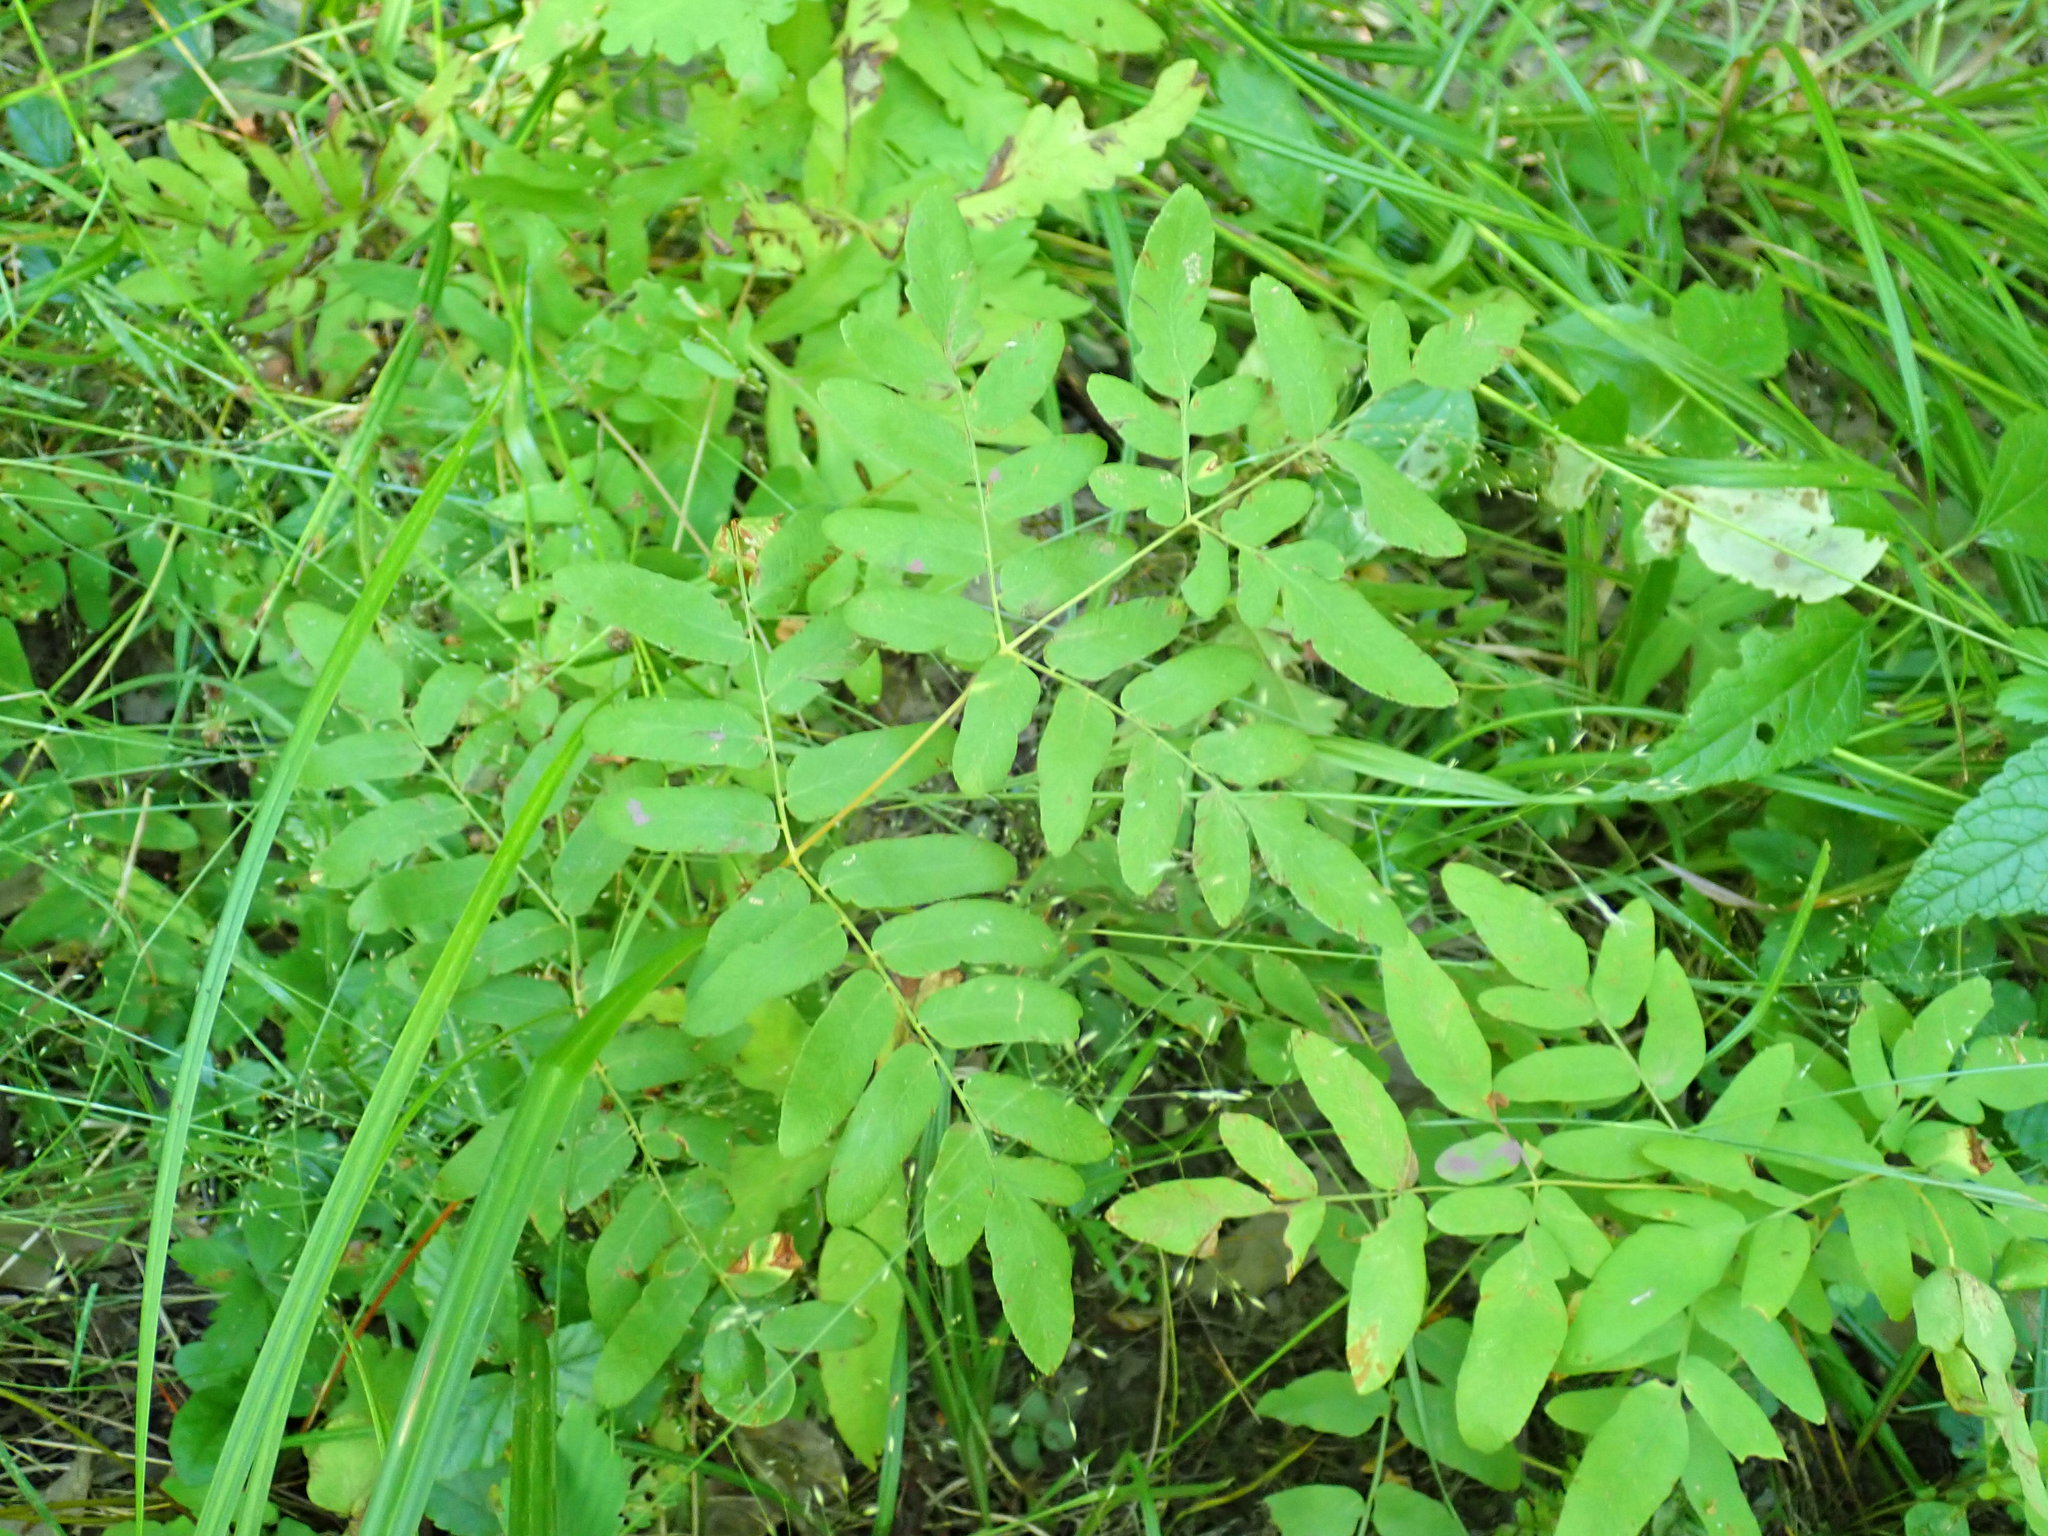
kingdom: Plantae
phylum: Tracheophyta
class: Polypodiopsida
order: Osmundales
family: Osmundaceae
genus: Osmunda
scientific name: Osmunda spectabilis
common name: American royal fern
